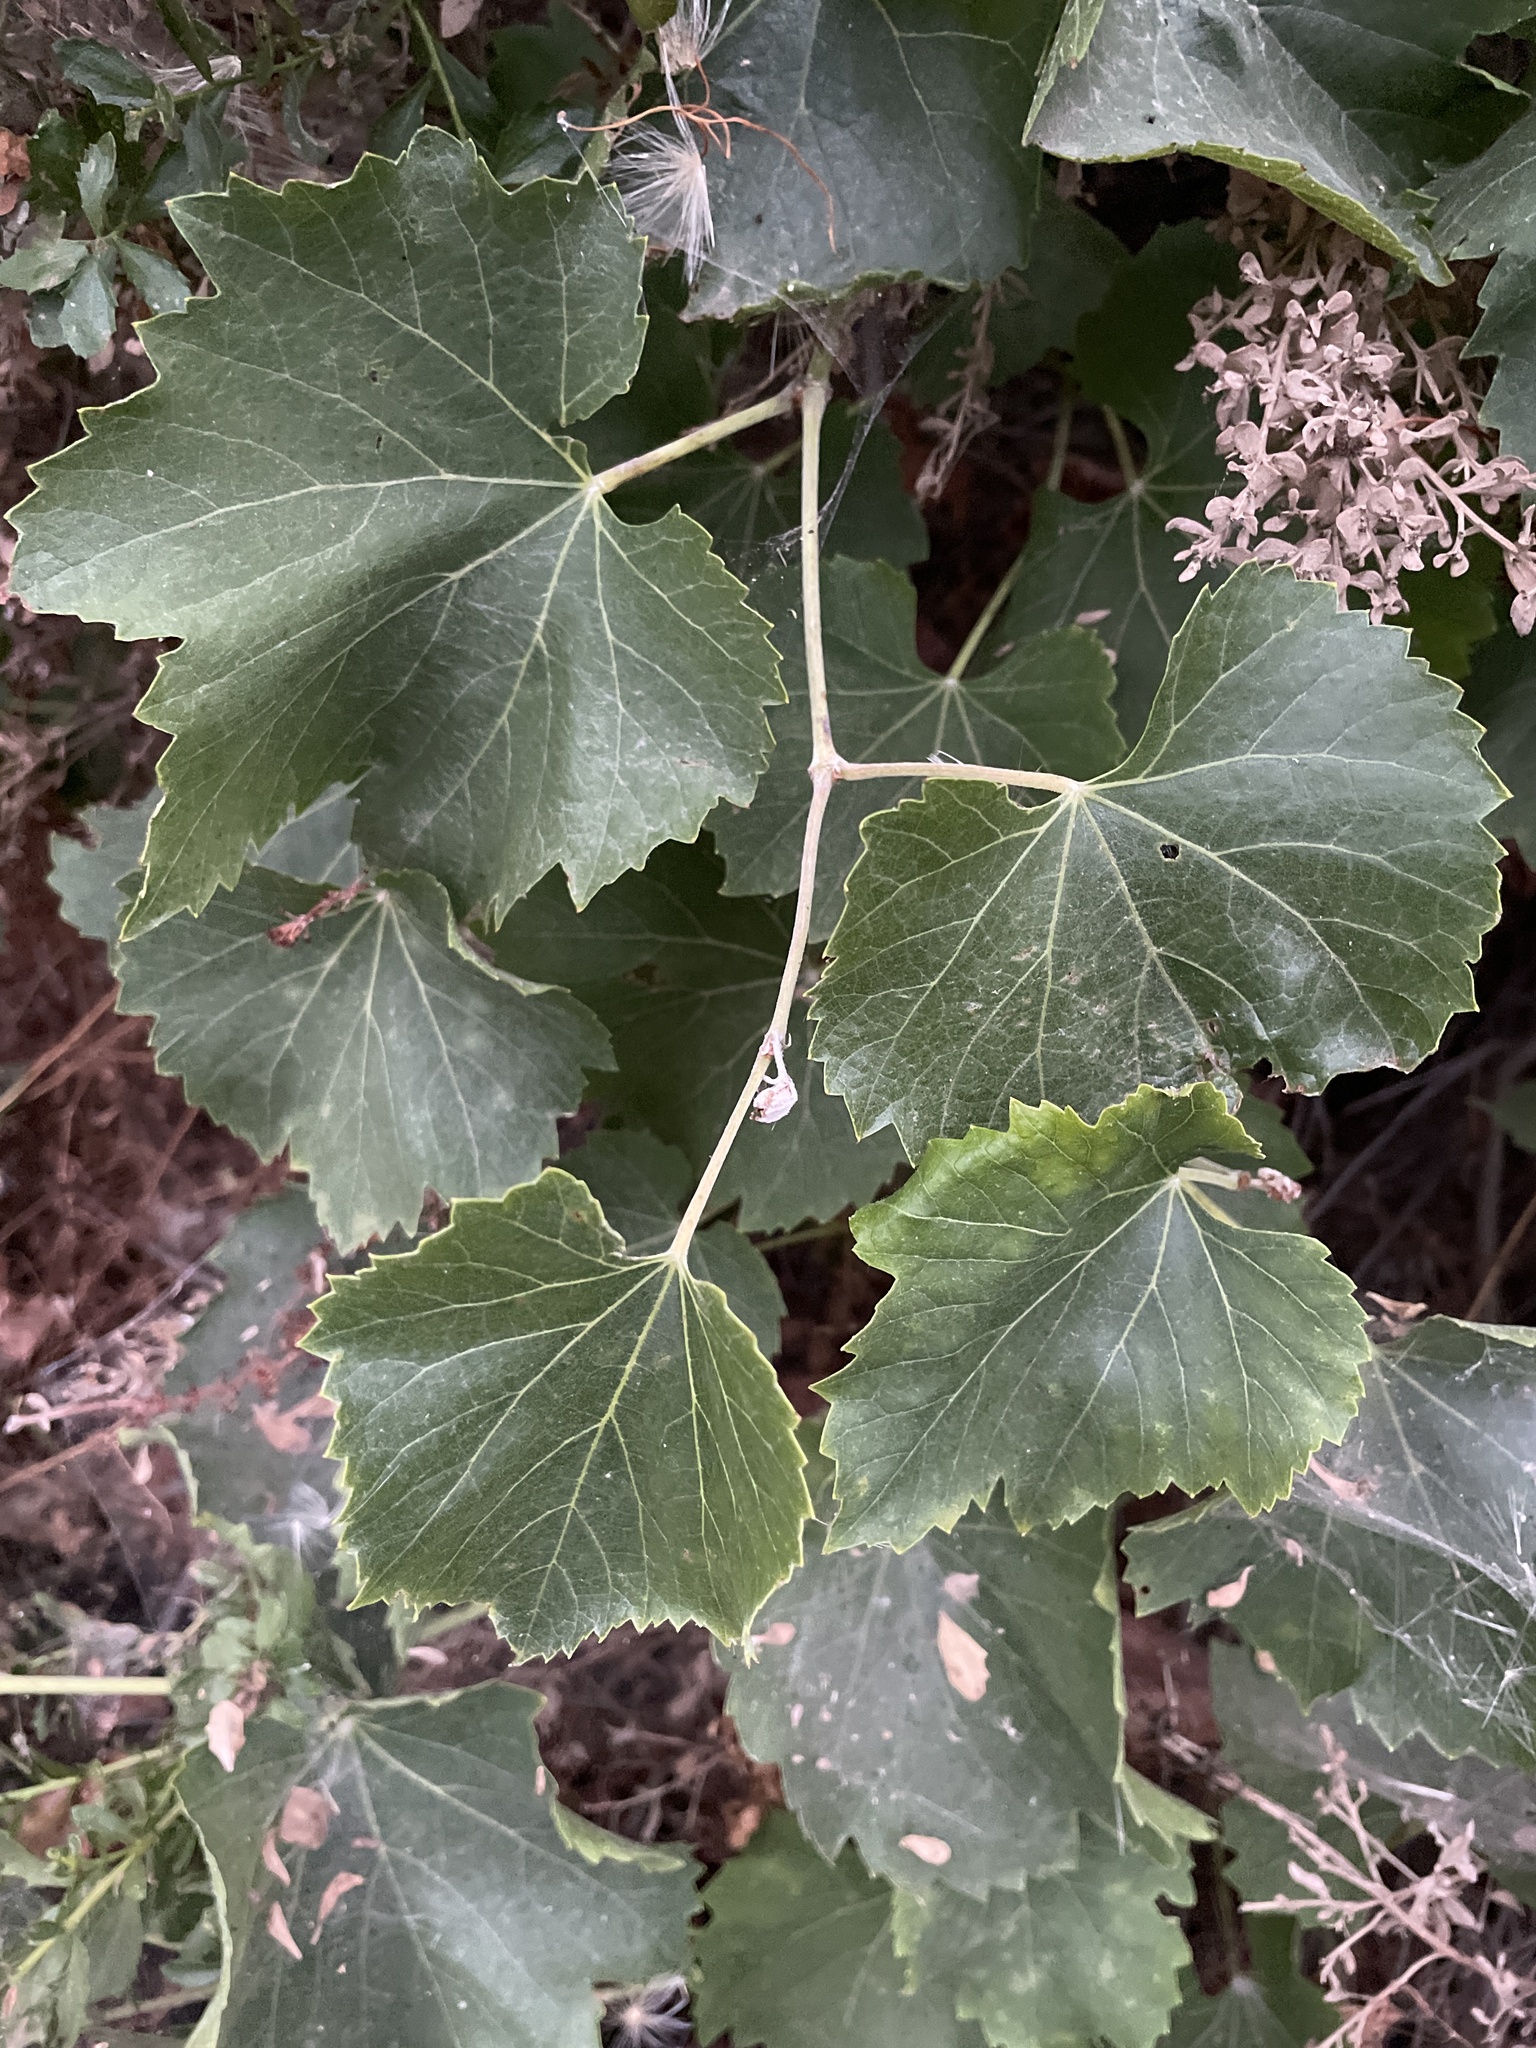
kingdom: Plantae
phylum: Tracheophyta
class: Magnoliopsida
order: Vitales
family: Vitaceae
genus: Vitis
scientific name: Vitis californica
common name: California wild grape
